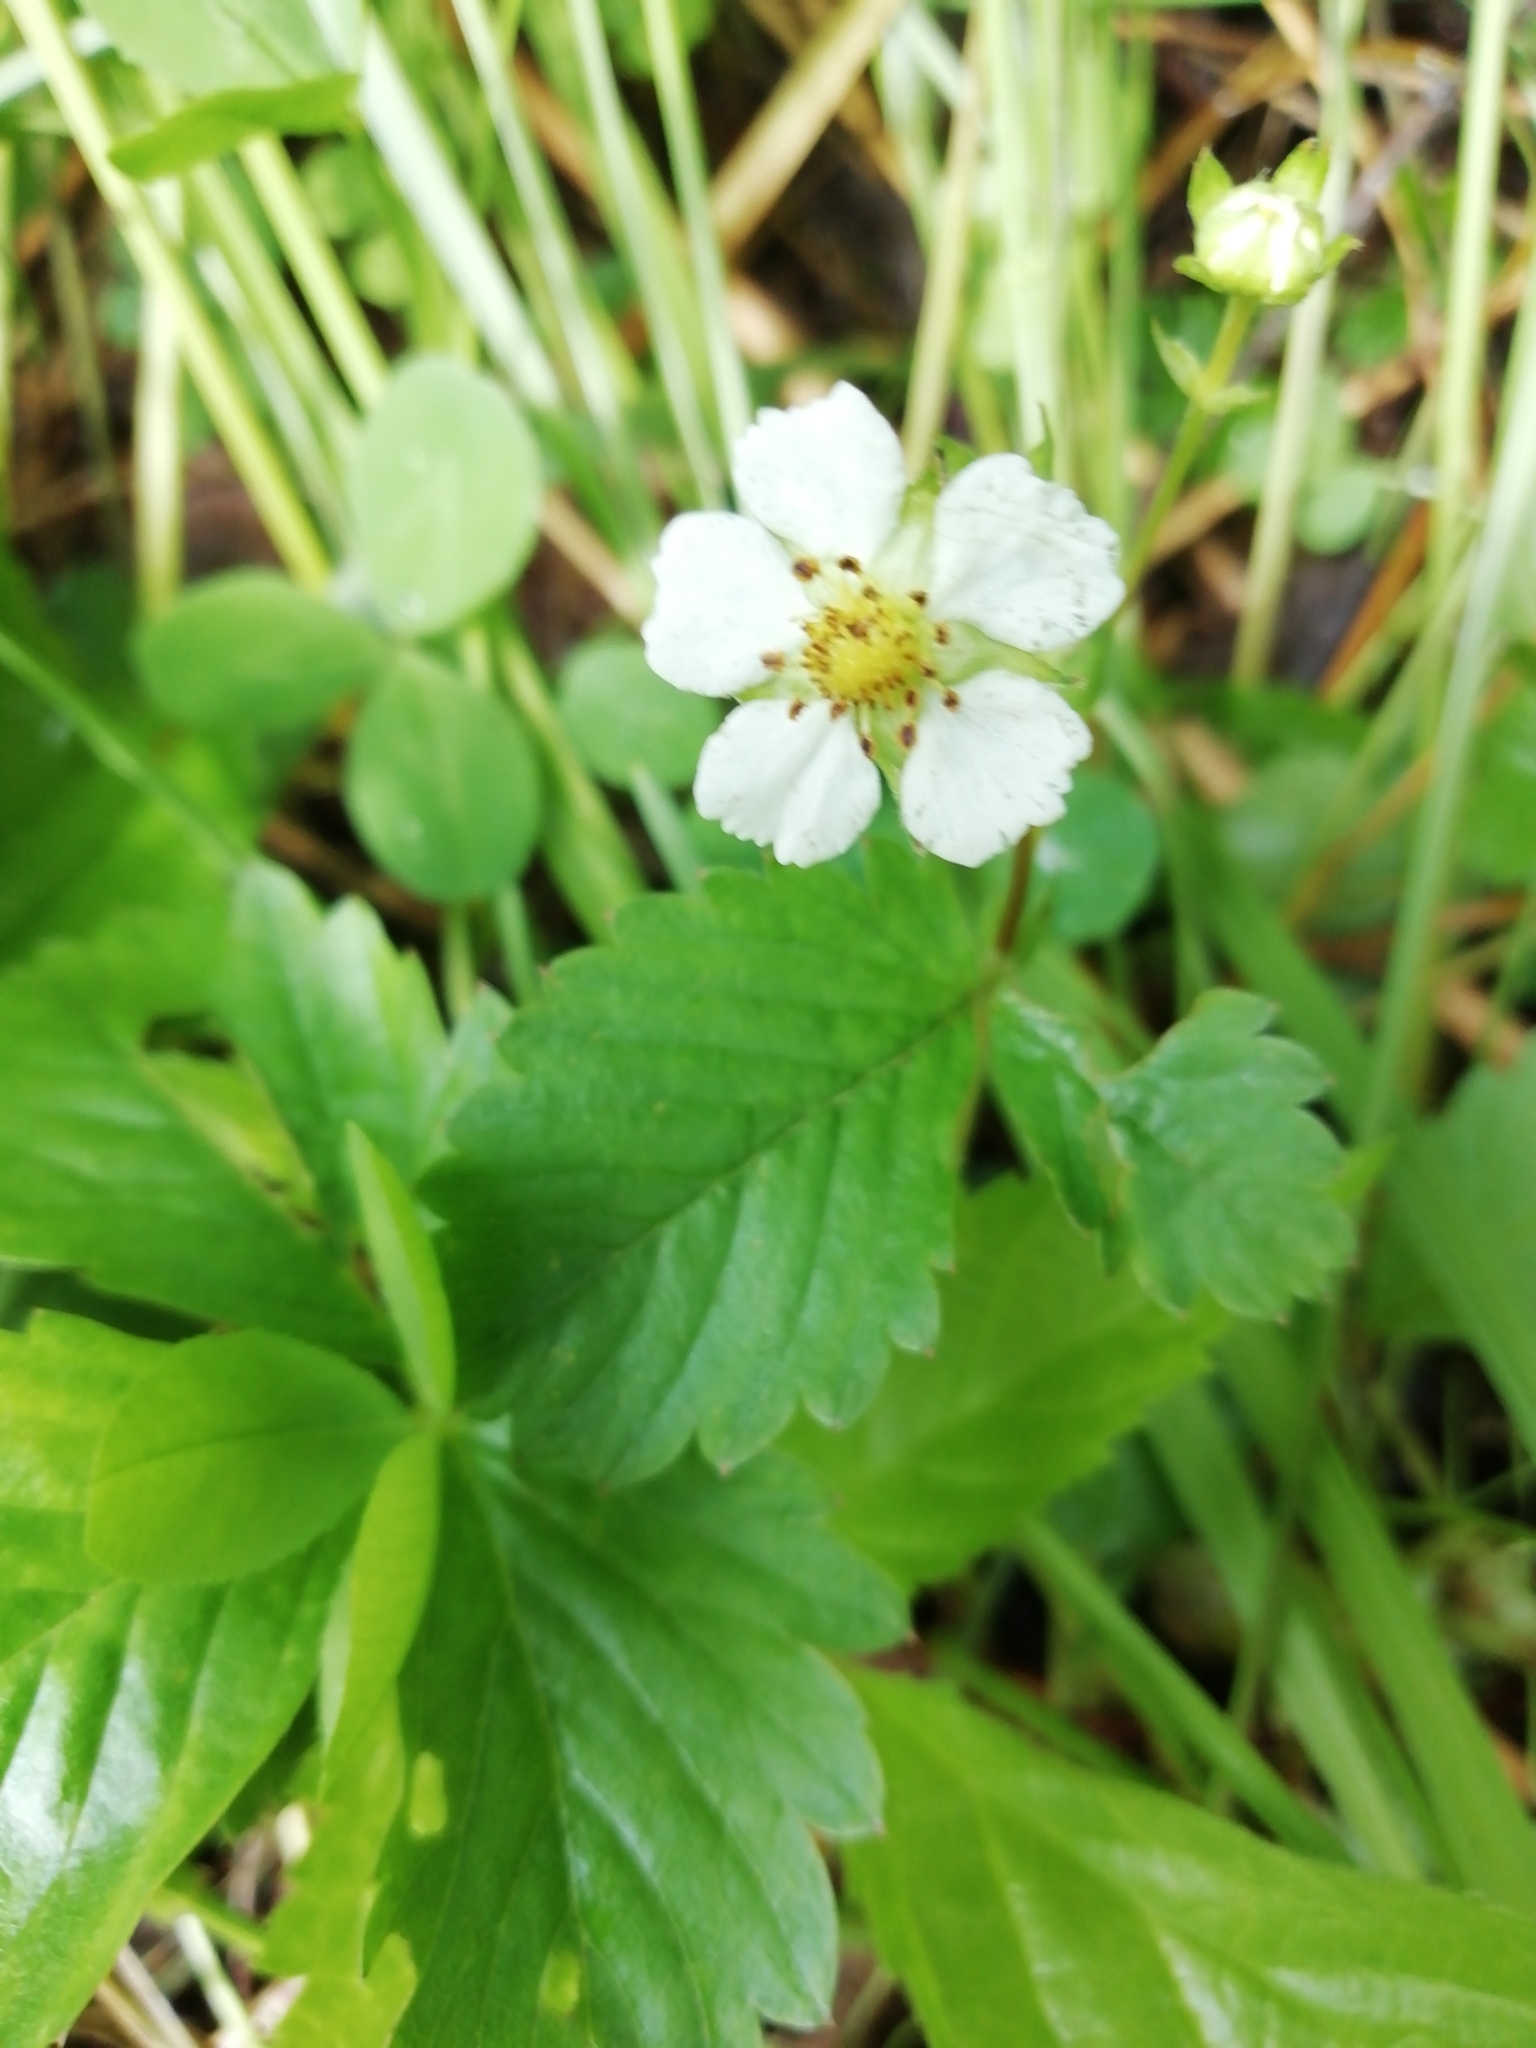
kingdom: Plantae
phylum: Tracheophyta
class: Magnoliopsida
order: Rosales
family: Rosaceae
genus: Fragaria
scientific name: Fragaria vesca
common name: Wild strawberry
